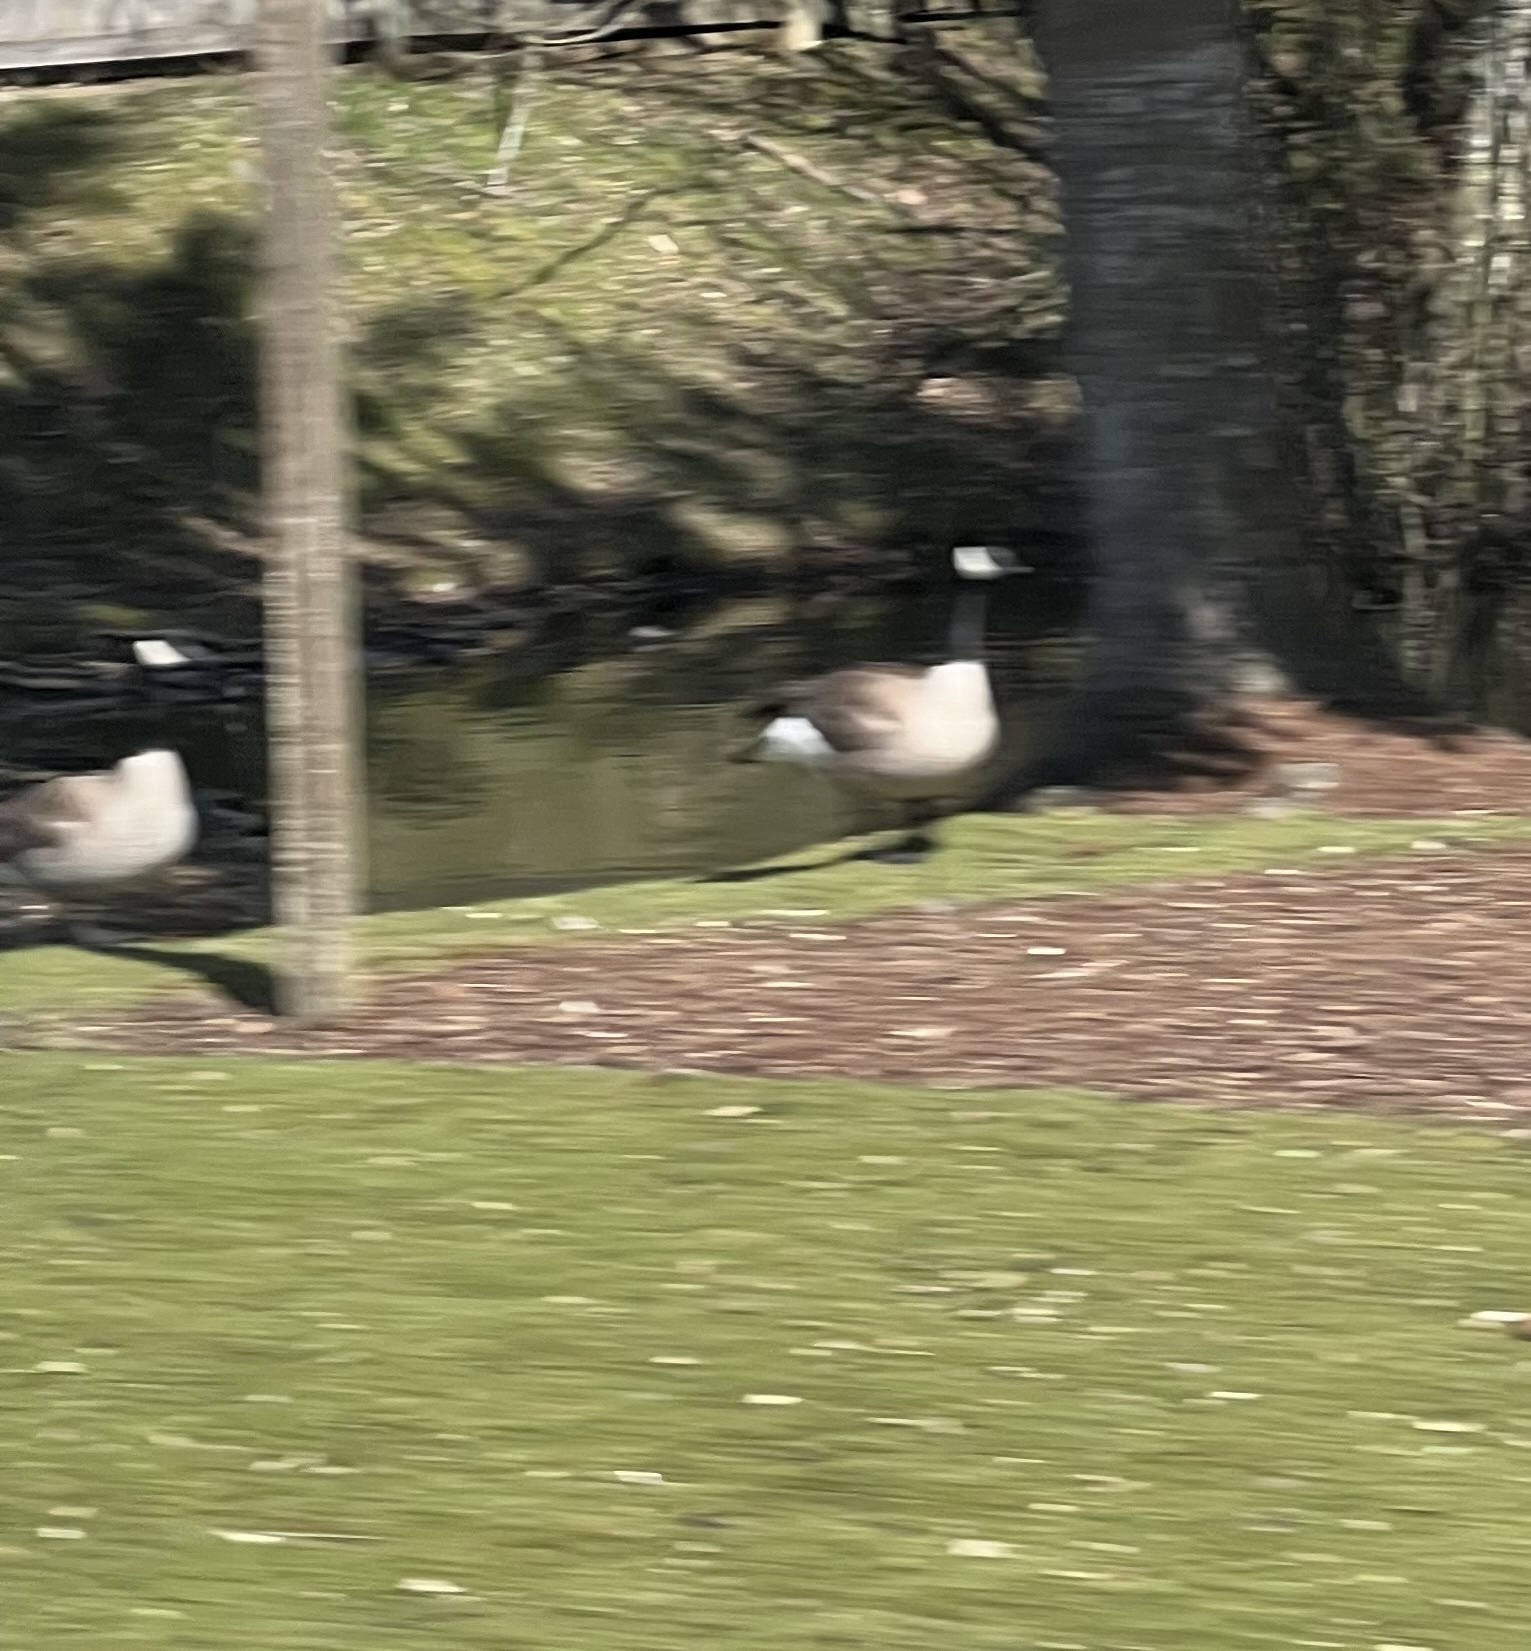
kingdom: Animalia
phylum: Chordata
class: Aves
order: Anseriformes
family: Anatidae
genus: Branta
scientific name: Branta canadensis
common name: Canada goose
